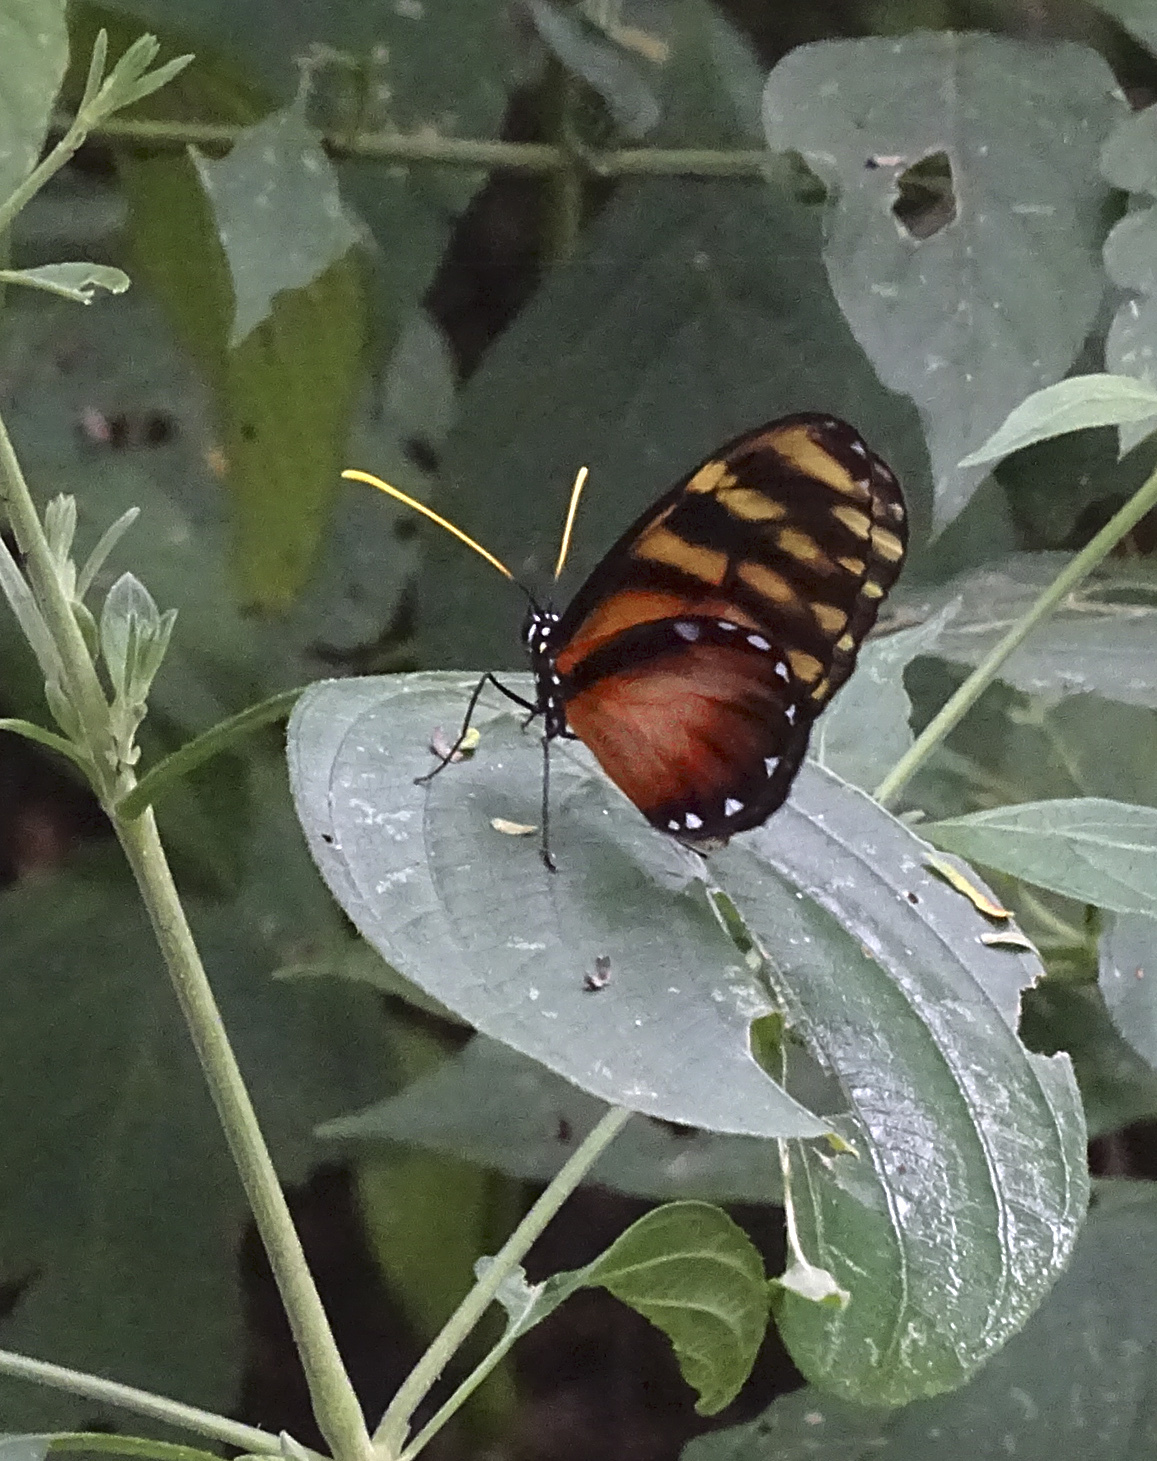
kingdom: Animalia
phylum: Arthropoda
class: Insecta
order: Lepidoptera
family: Nymphalidae
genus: Dircenna
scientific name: Dircenna klugii
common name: Klug’s clearwing
